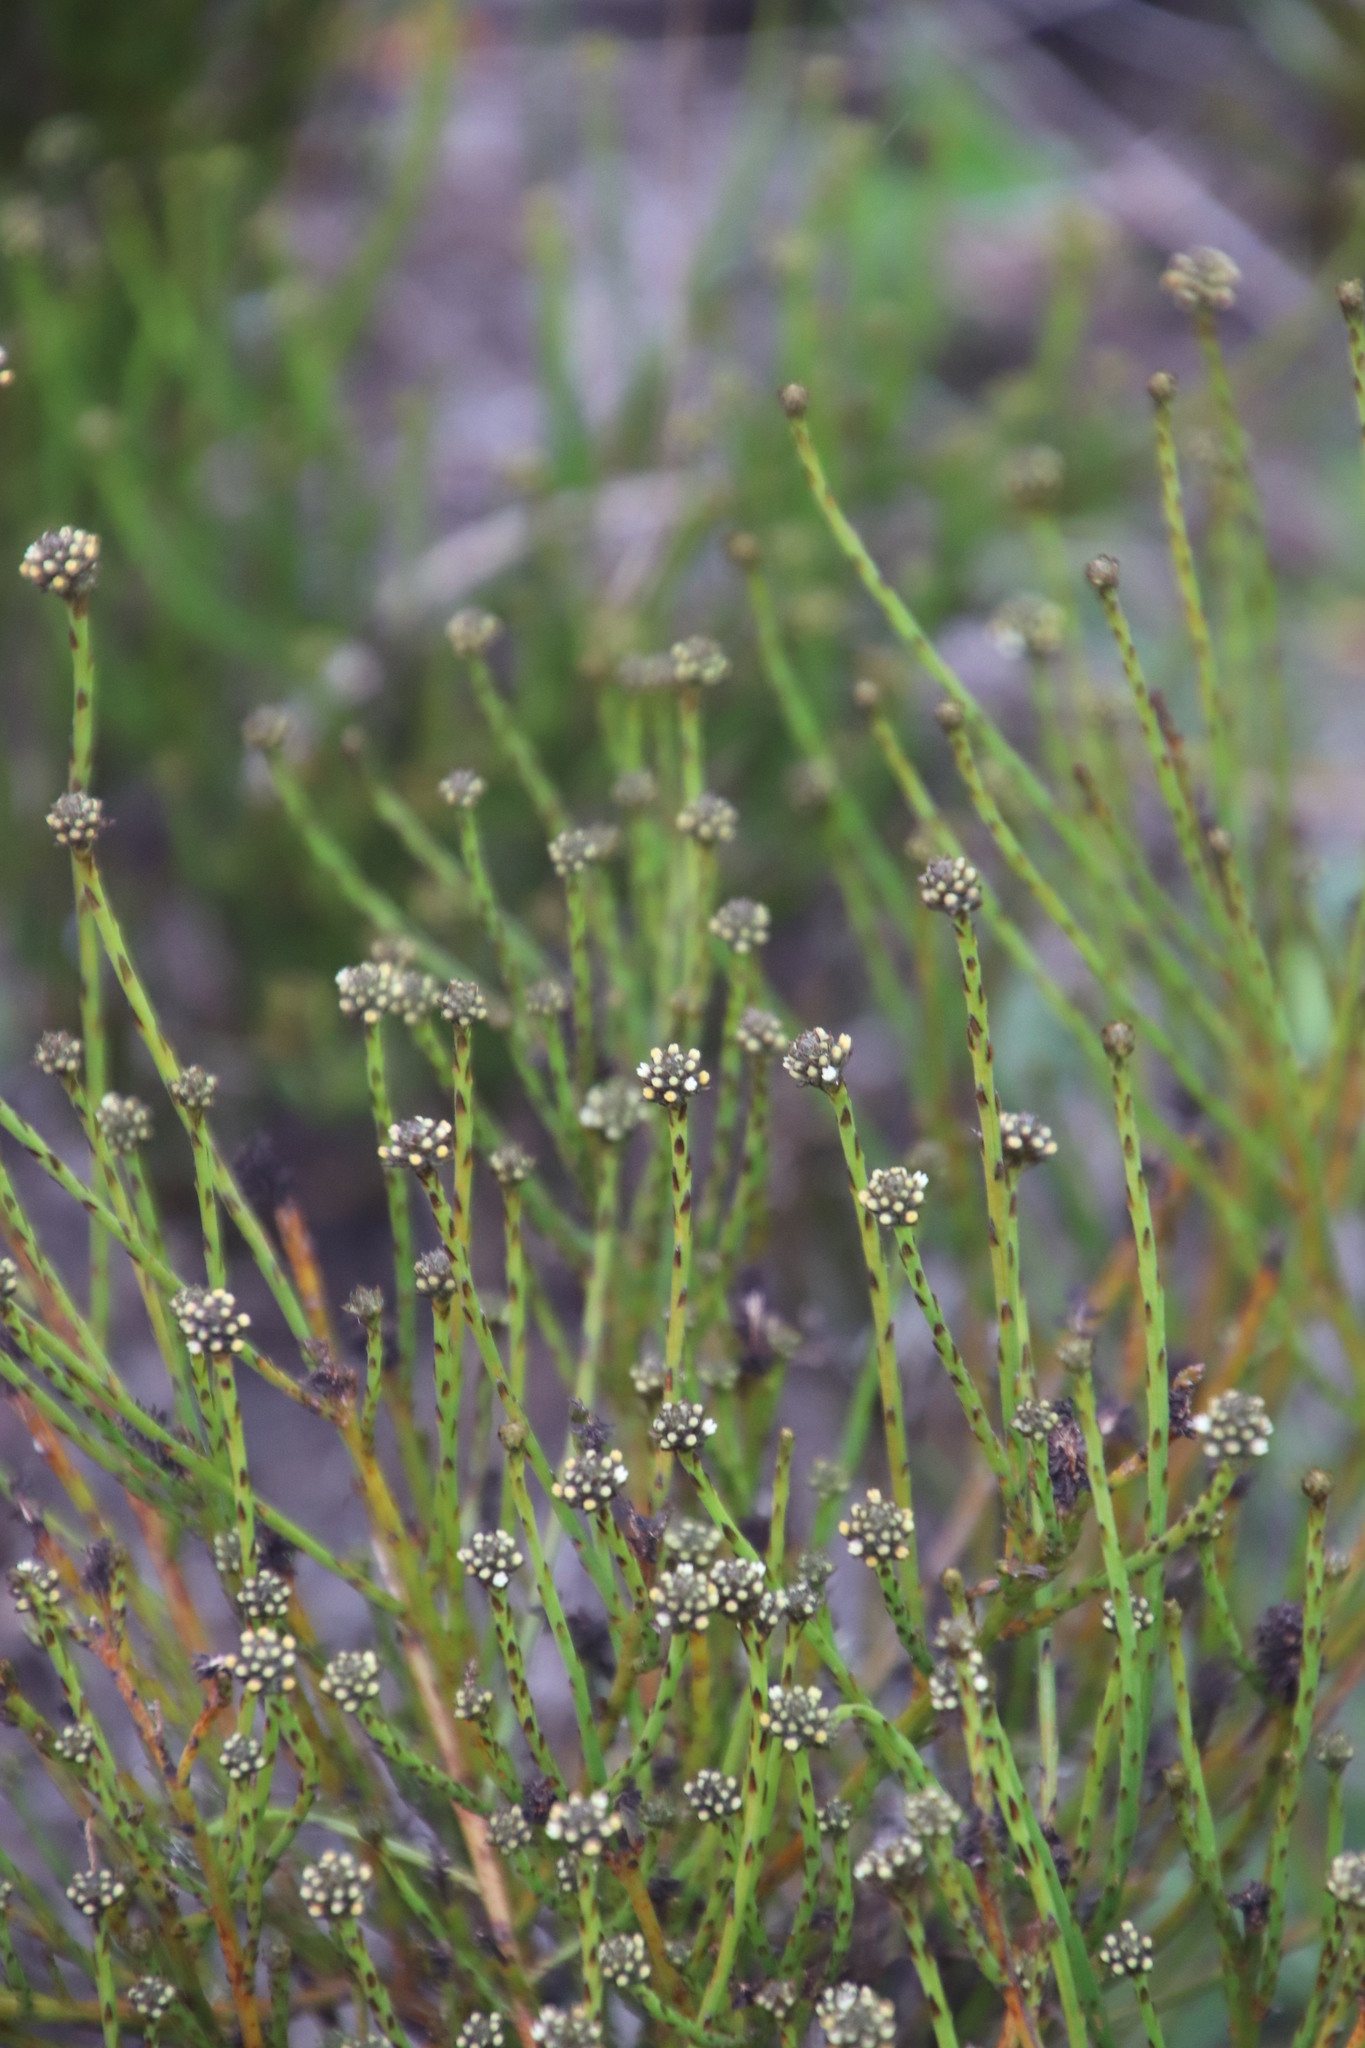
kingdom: Plantae
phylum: Tracheophyta
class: Magnoliopsida
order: Santalales
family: Thesiaceae
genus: Thesium
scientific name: Thesium aggregatum
